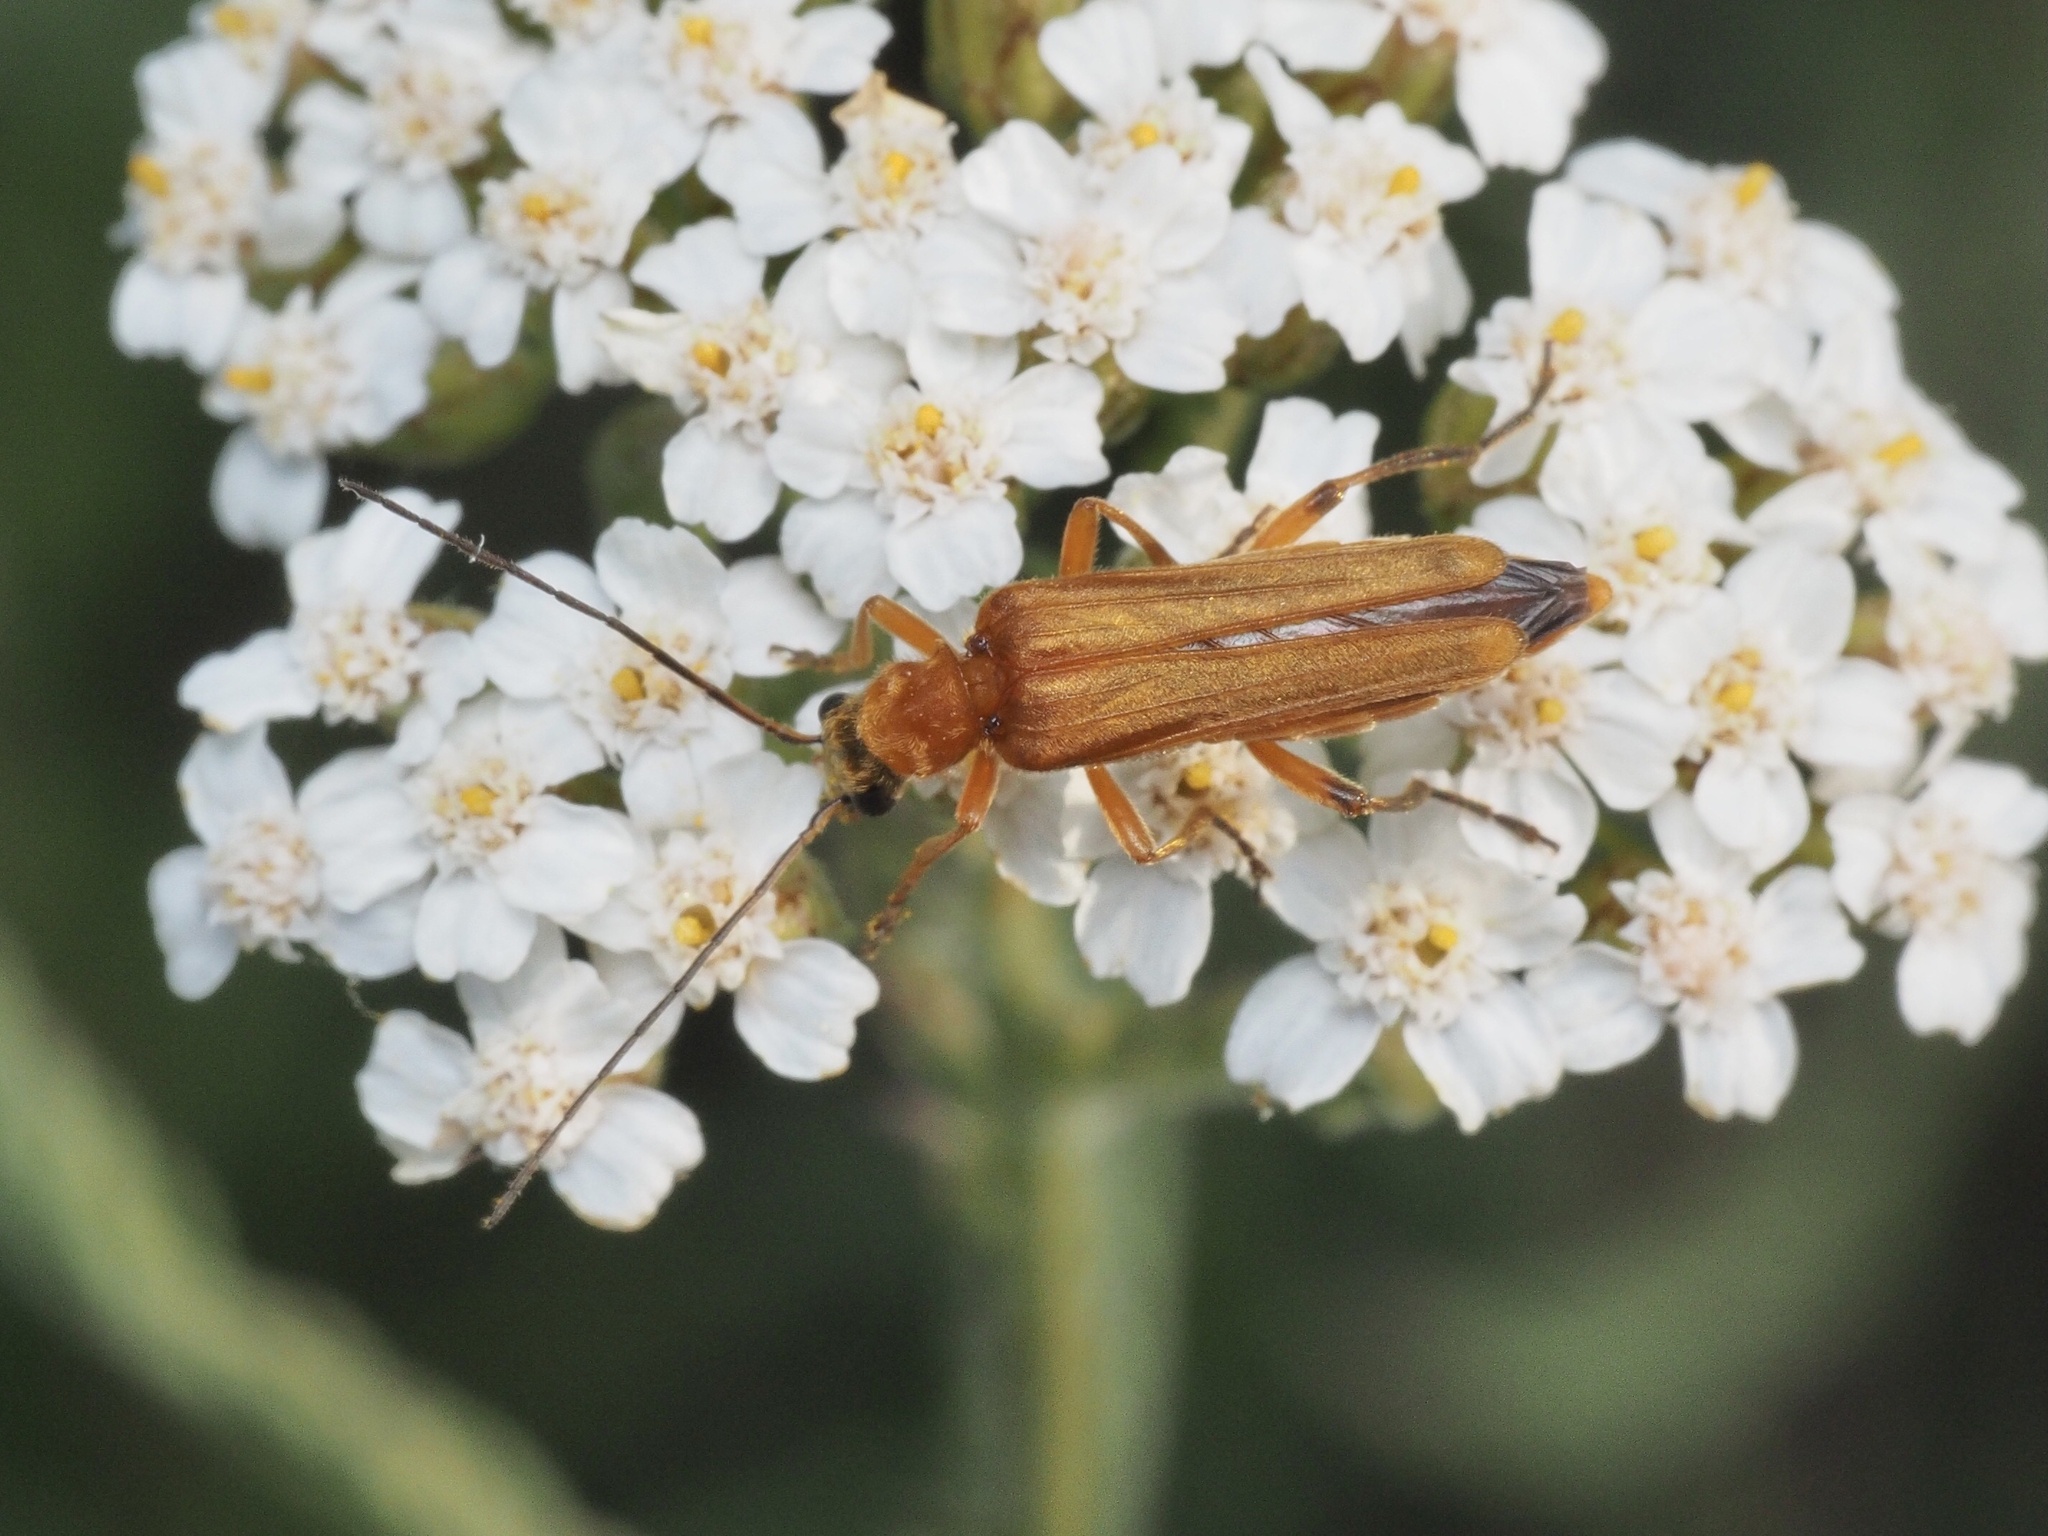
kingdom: Animalia
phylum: Arthropoda
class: Insecta
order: Coleoptera
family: Oedemeridae
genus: Oedemera
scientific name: Oedemera podagrariae
